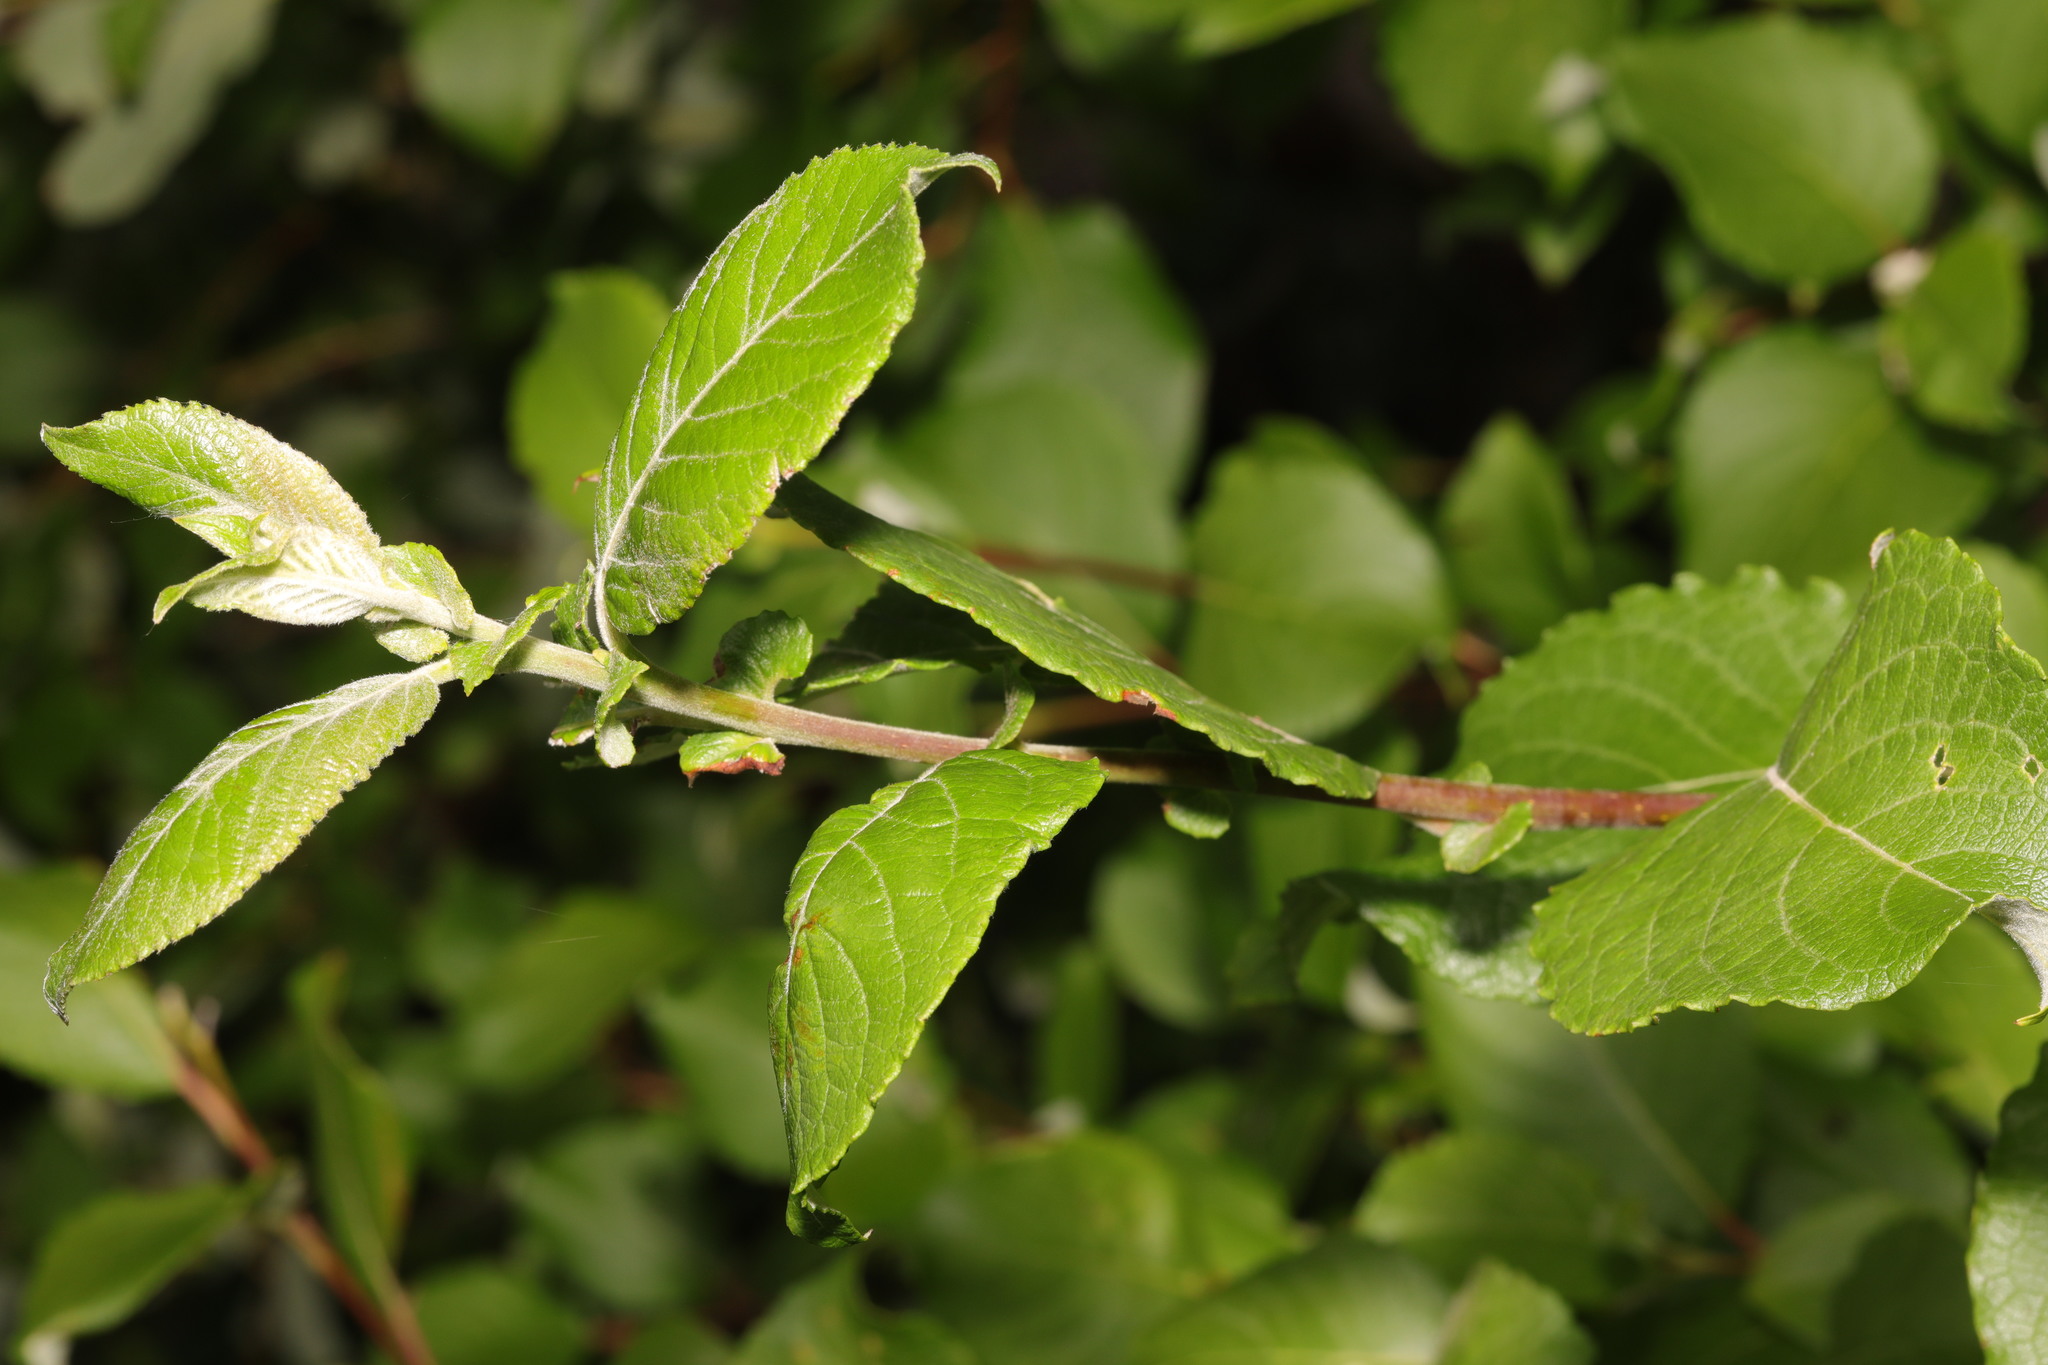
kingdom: Plantae
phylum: Tracheophyta
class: Magnoliopsida
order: Malpighiales
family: Salicaceae
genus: Salix
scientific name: Salix caprea
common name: Goat willow
